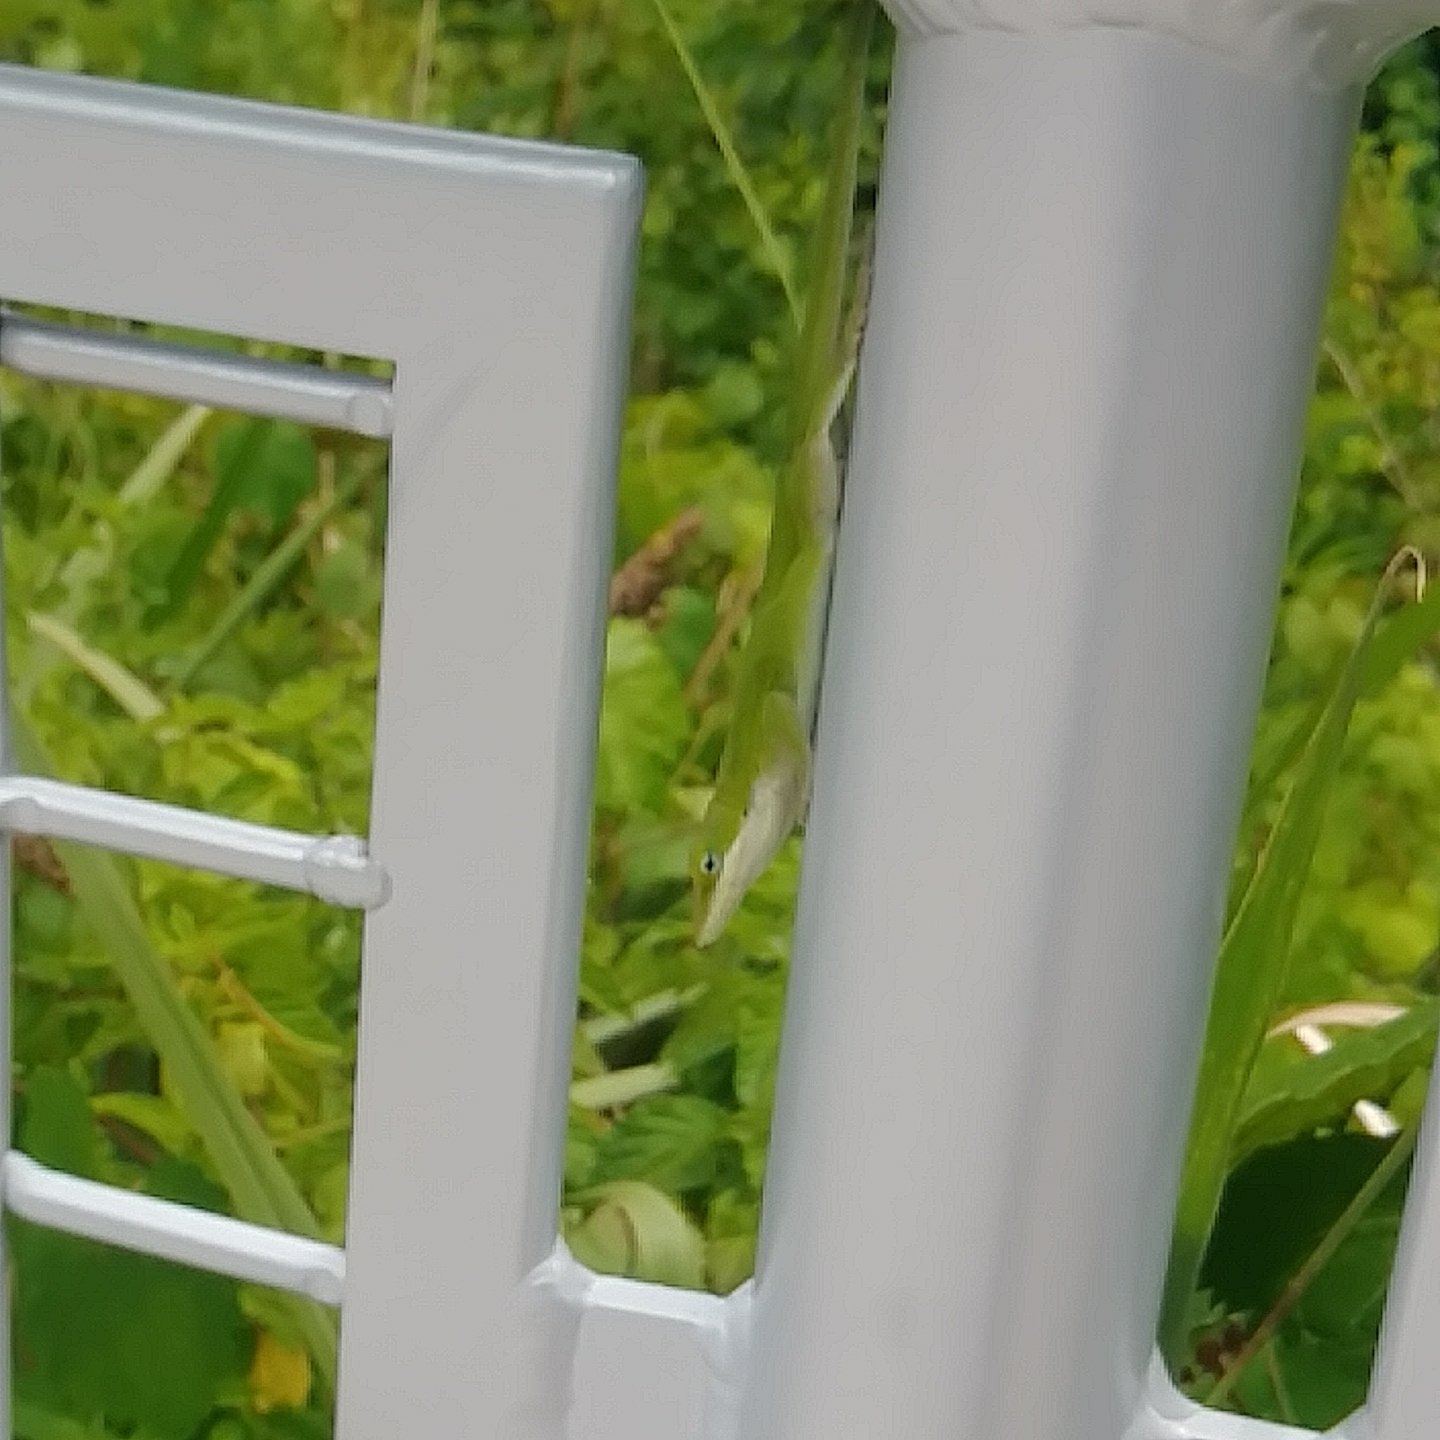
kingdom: Animalia
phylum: Chordata
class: Squamata
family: Dactyloidae
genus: Anolis
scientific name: Anolis carolinensis
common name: Green anole
